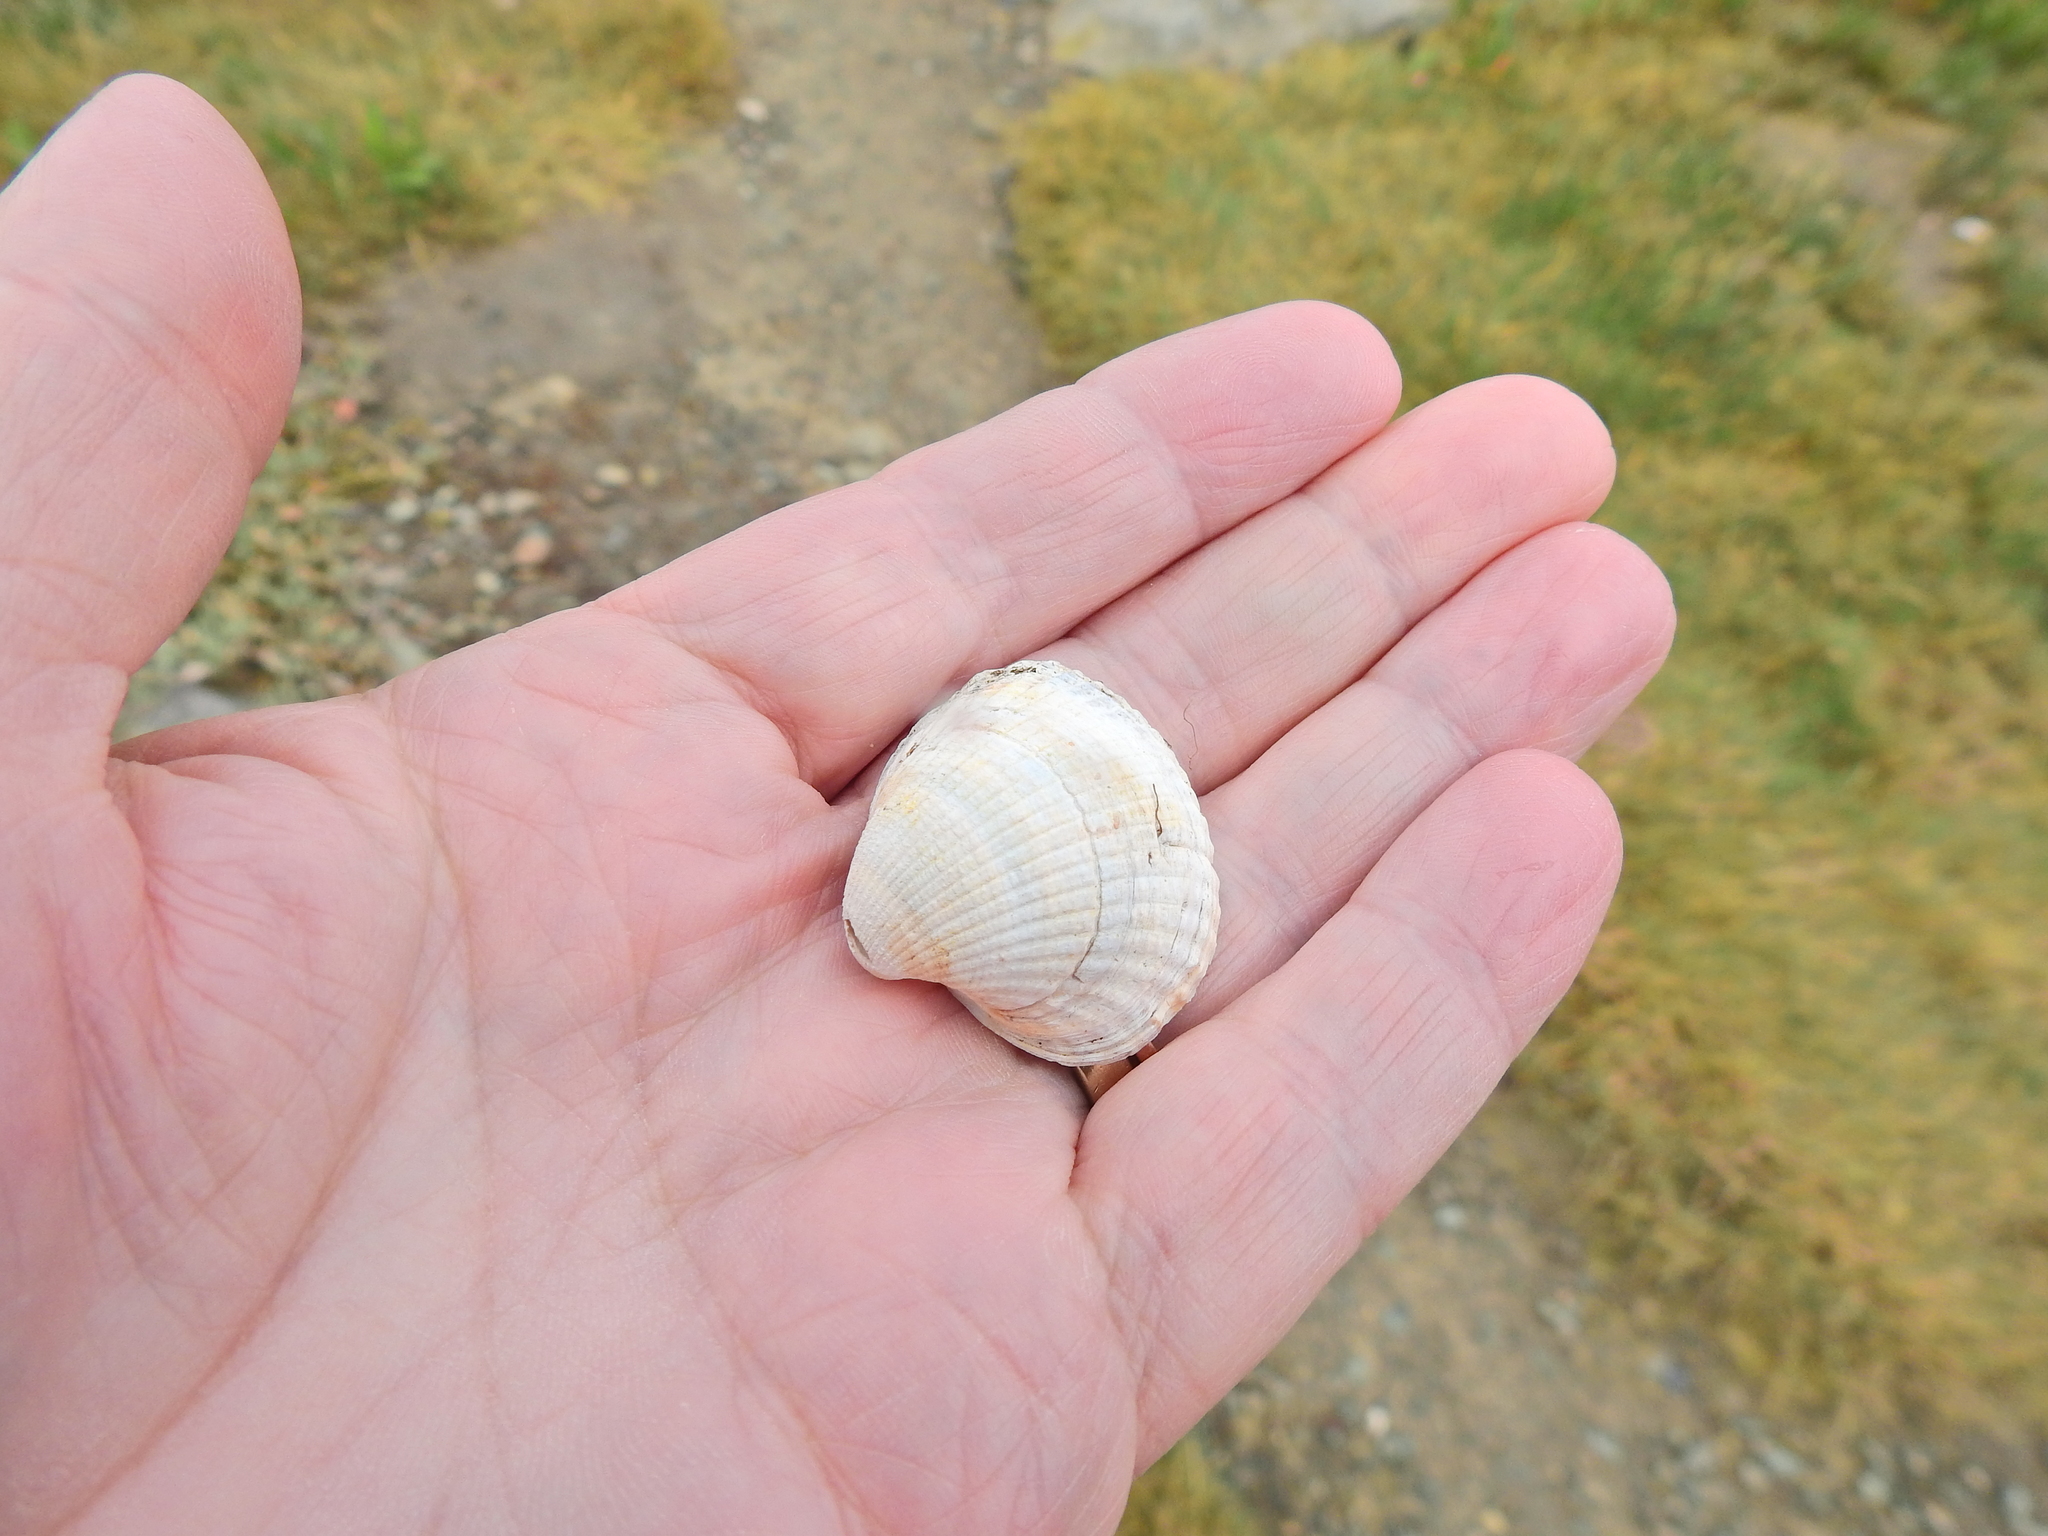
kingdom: Animalia
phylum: Mollusca
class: Bivalvia
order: Cardiida
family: Cardiidae
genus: Cerastoderma
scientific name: Cerastoderma edule
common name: Common cockle
